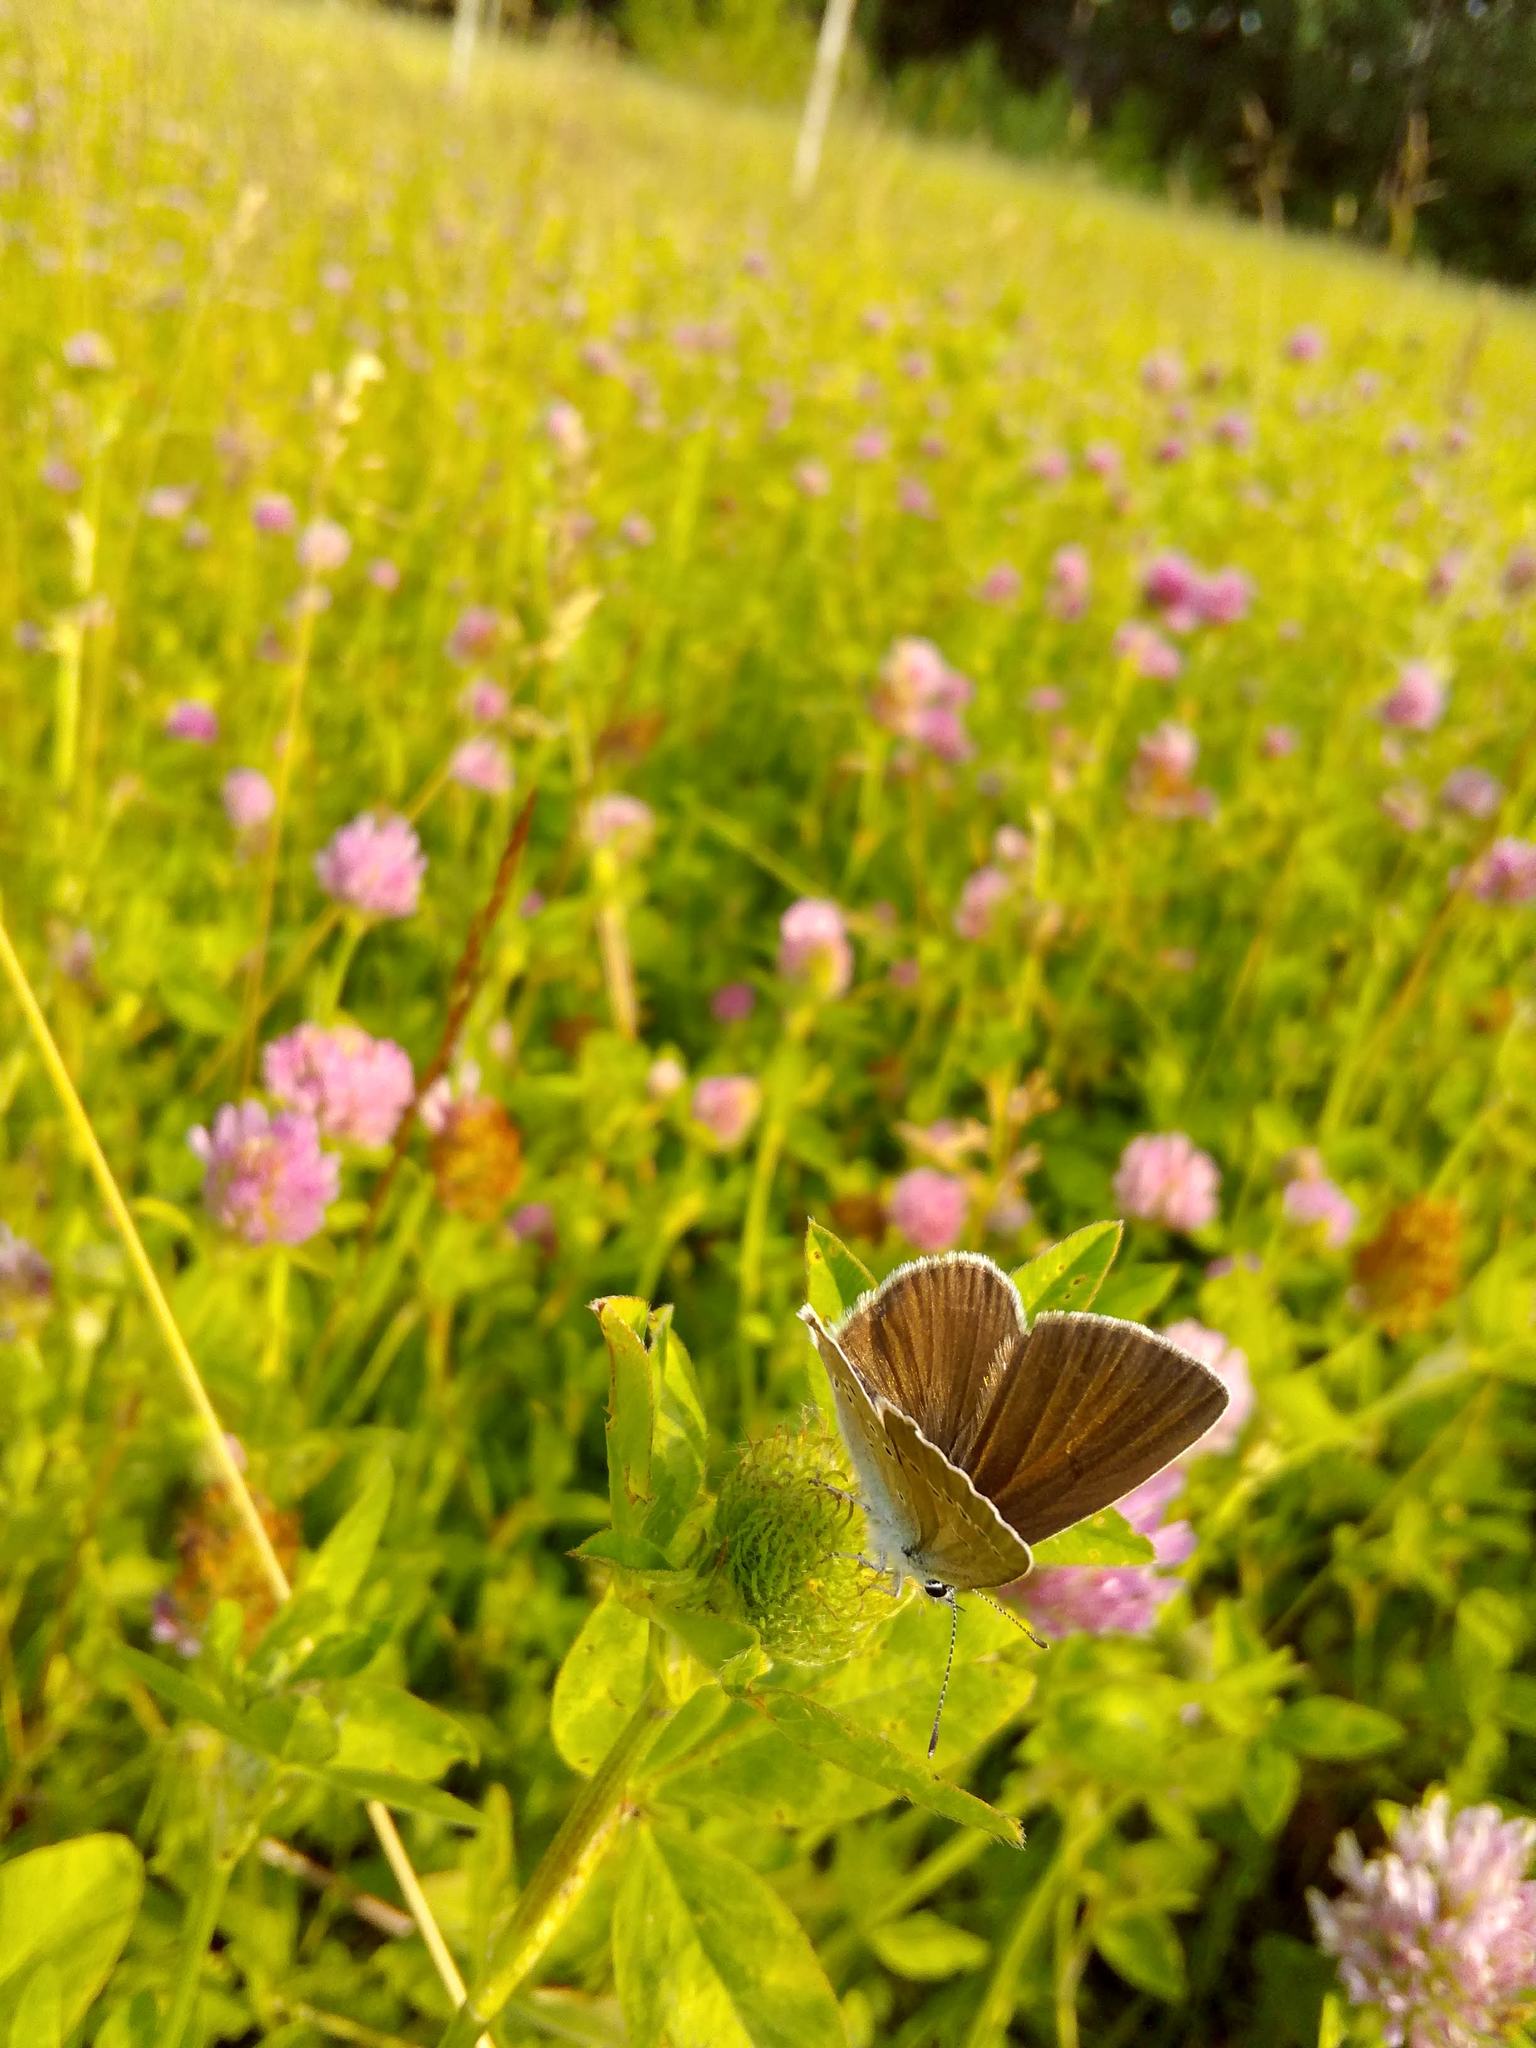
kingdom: Animalia
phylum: Arthropoda
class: Insecta
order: Lepidoptera
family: Lycaenidae
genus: Cyaniris
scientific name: Cyaniris semiargus
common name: Mazarine blue
